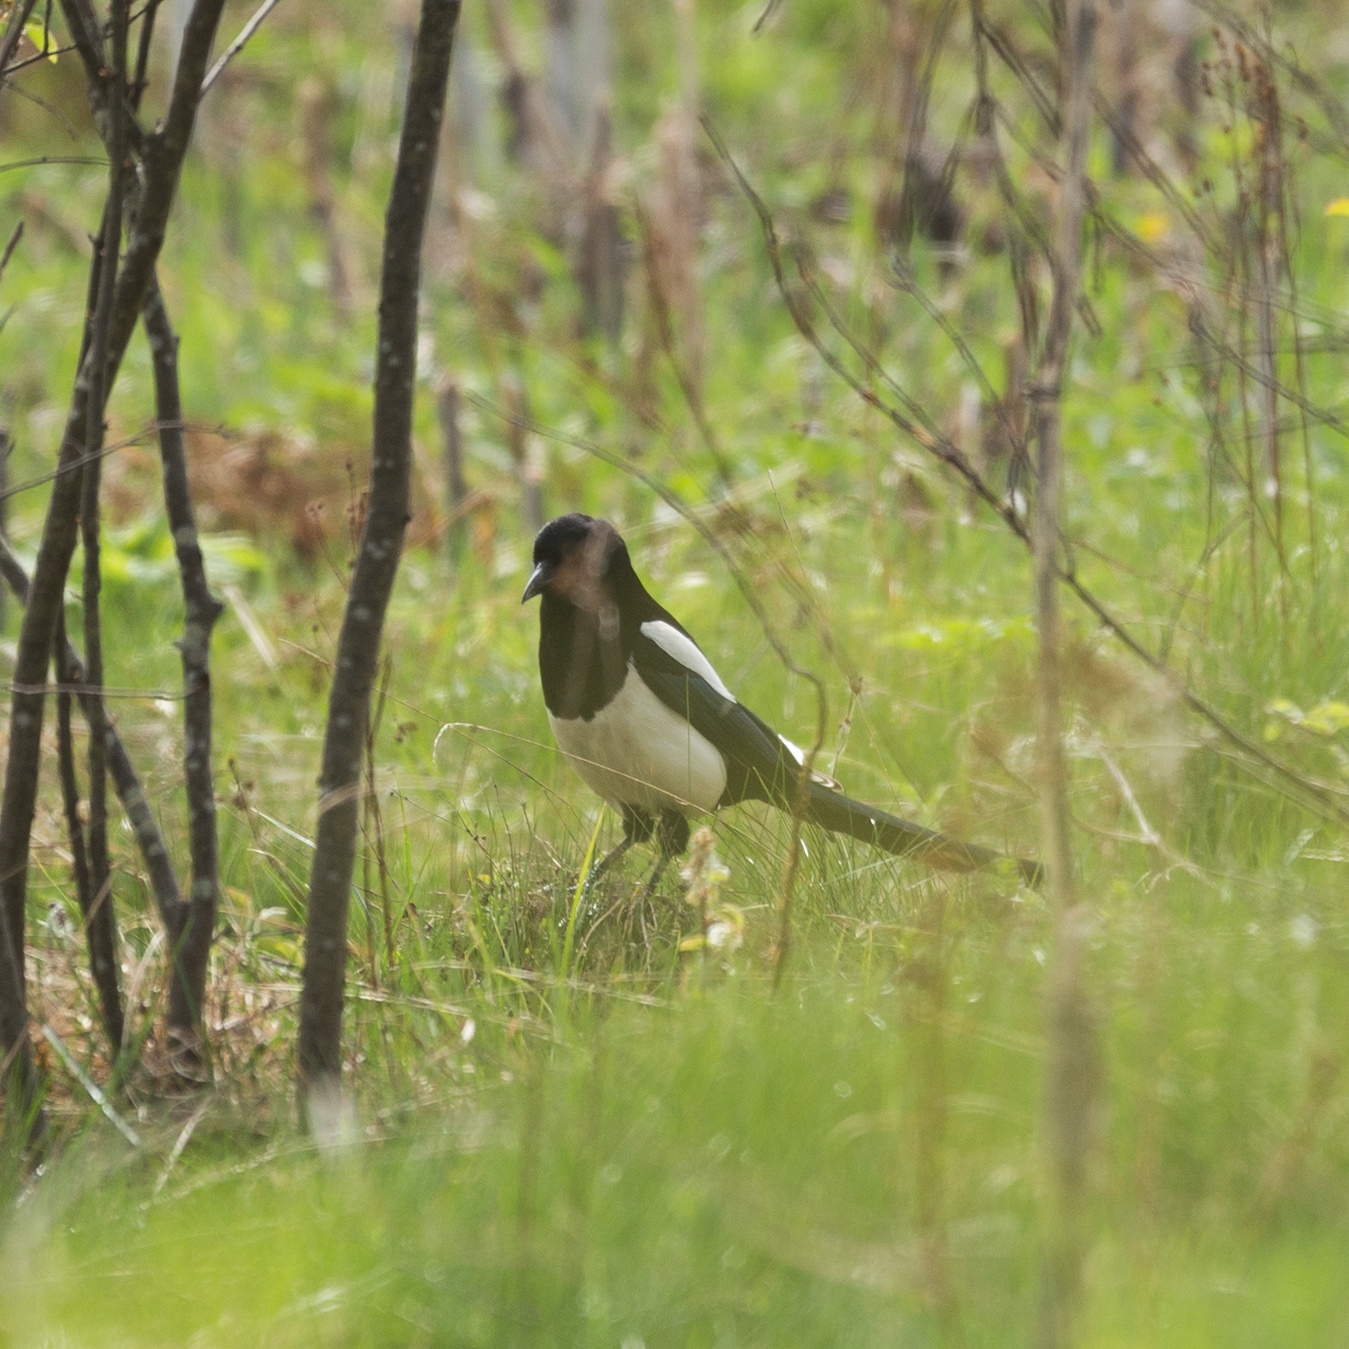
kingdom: Animalia
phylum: Chordata
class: Aves
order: Passeriformes
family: Corvidae
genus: Pica
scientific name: Pica pica
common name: Eurasian magpie
